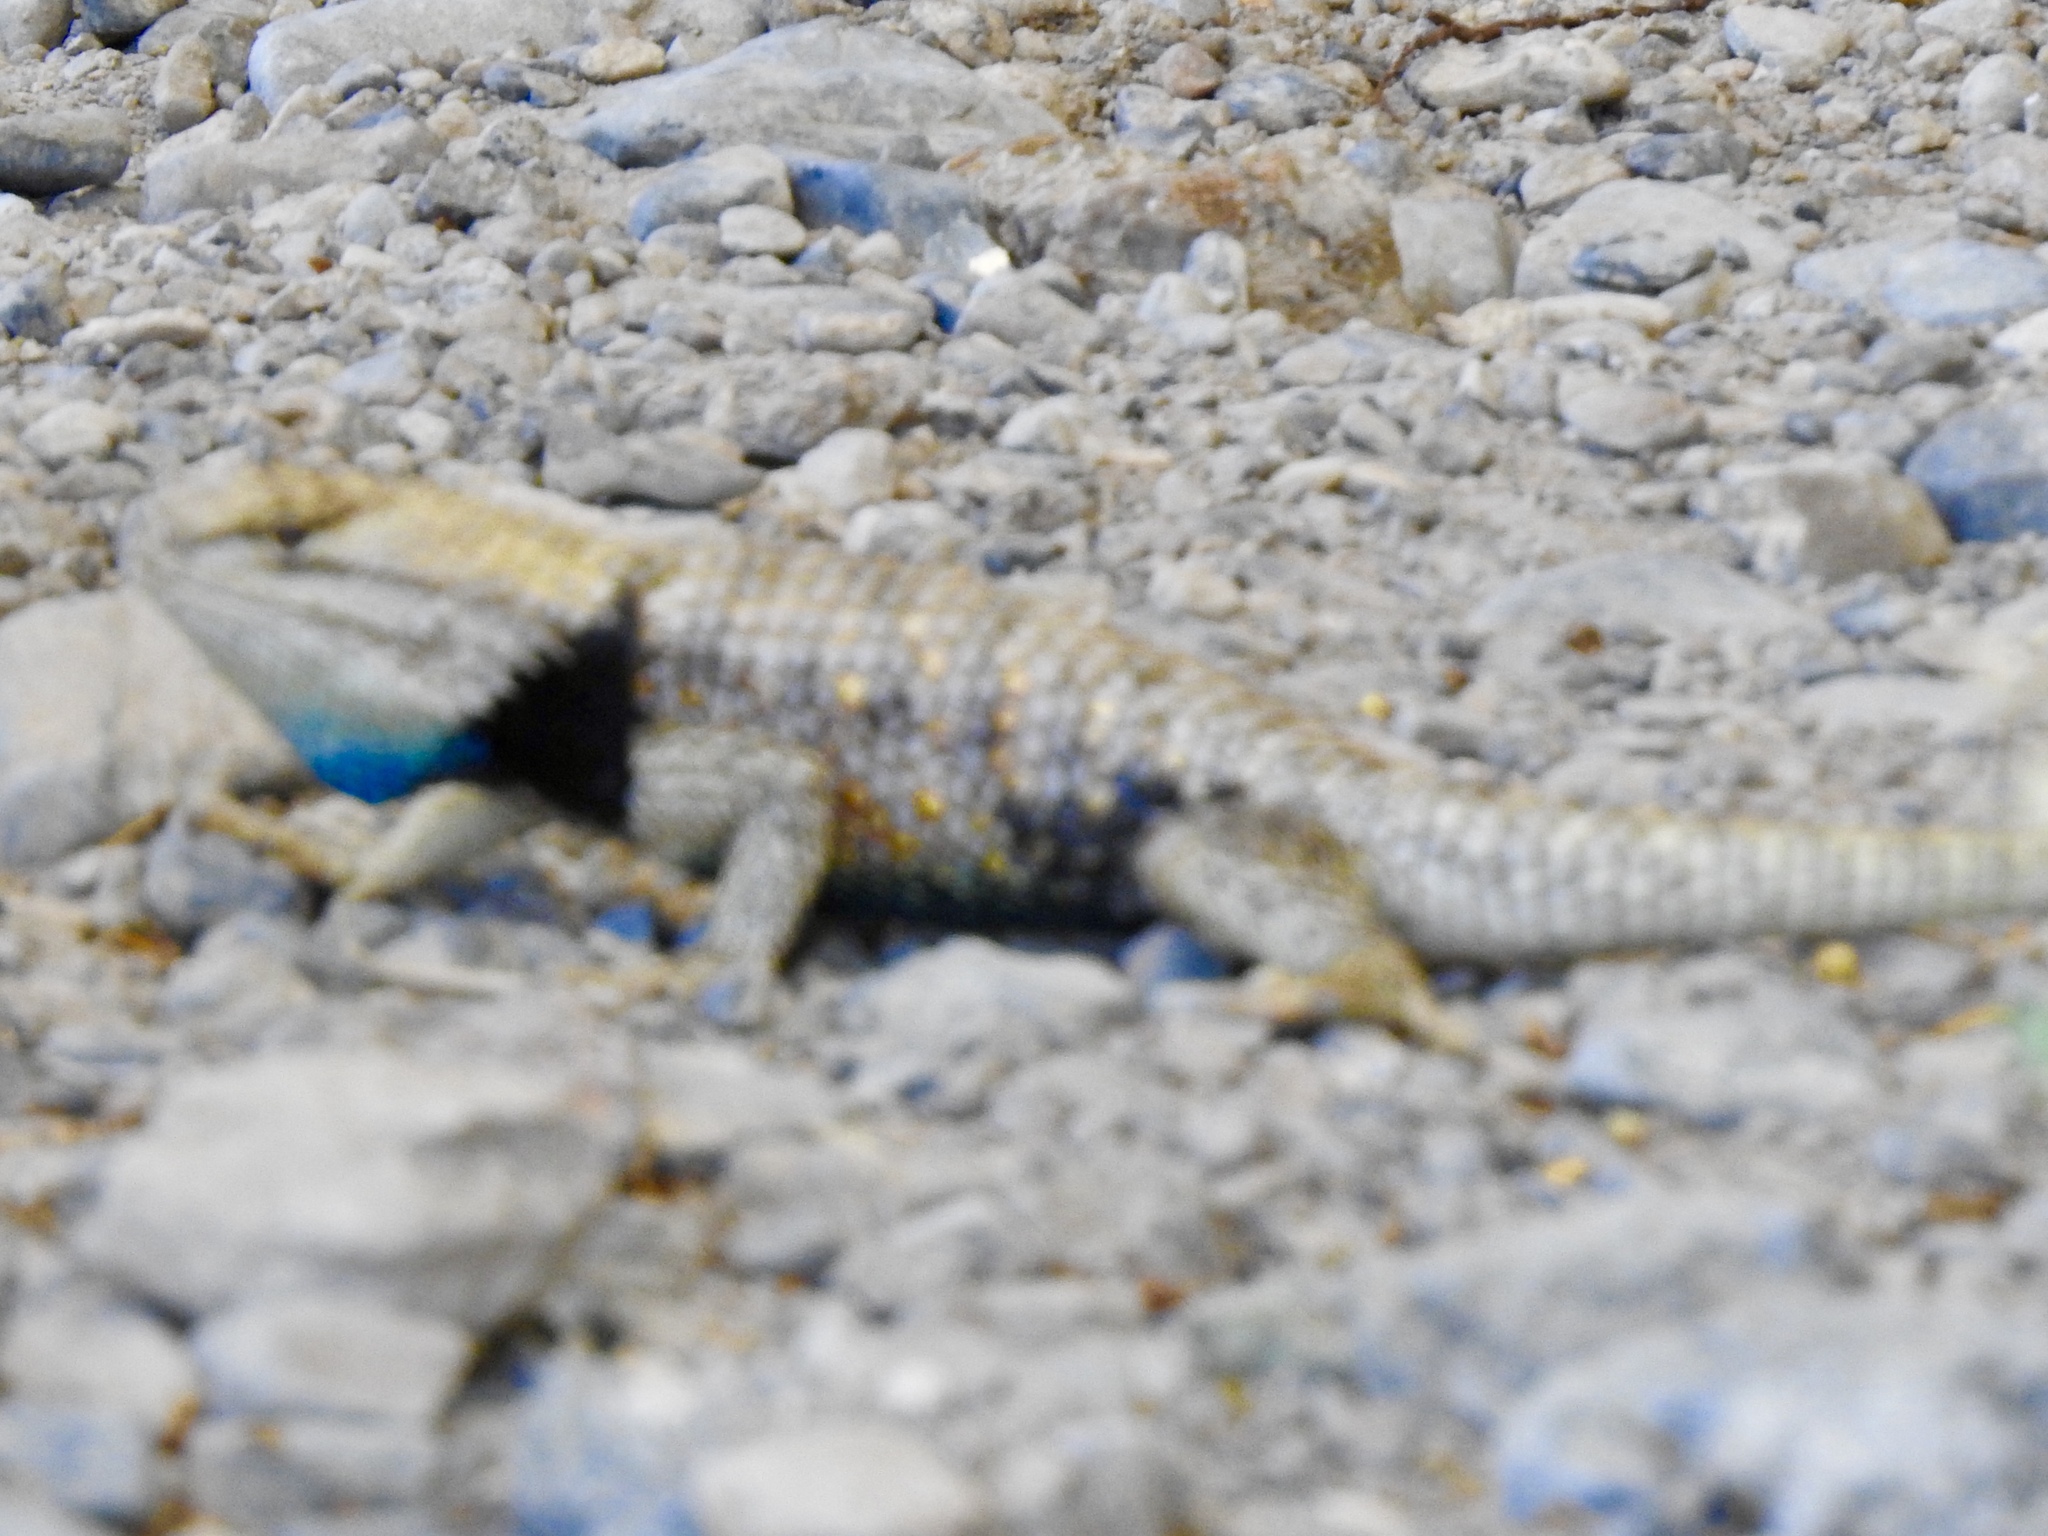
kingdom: Animalia
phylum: Chordata
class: Squamata
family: Phrynosomatidae
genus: Sceloporus
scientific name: Sceloporus uniformis
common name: Yellow-backed spiny lizard
